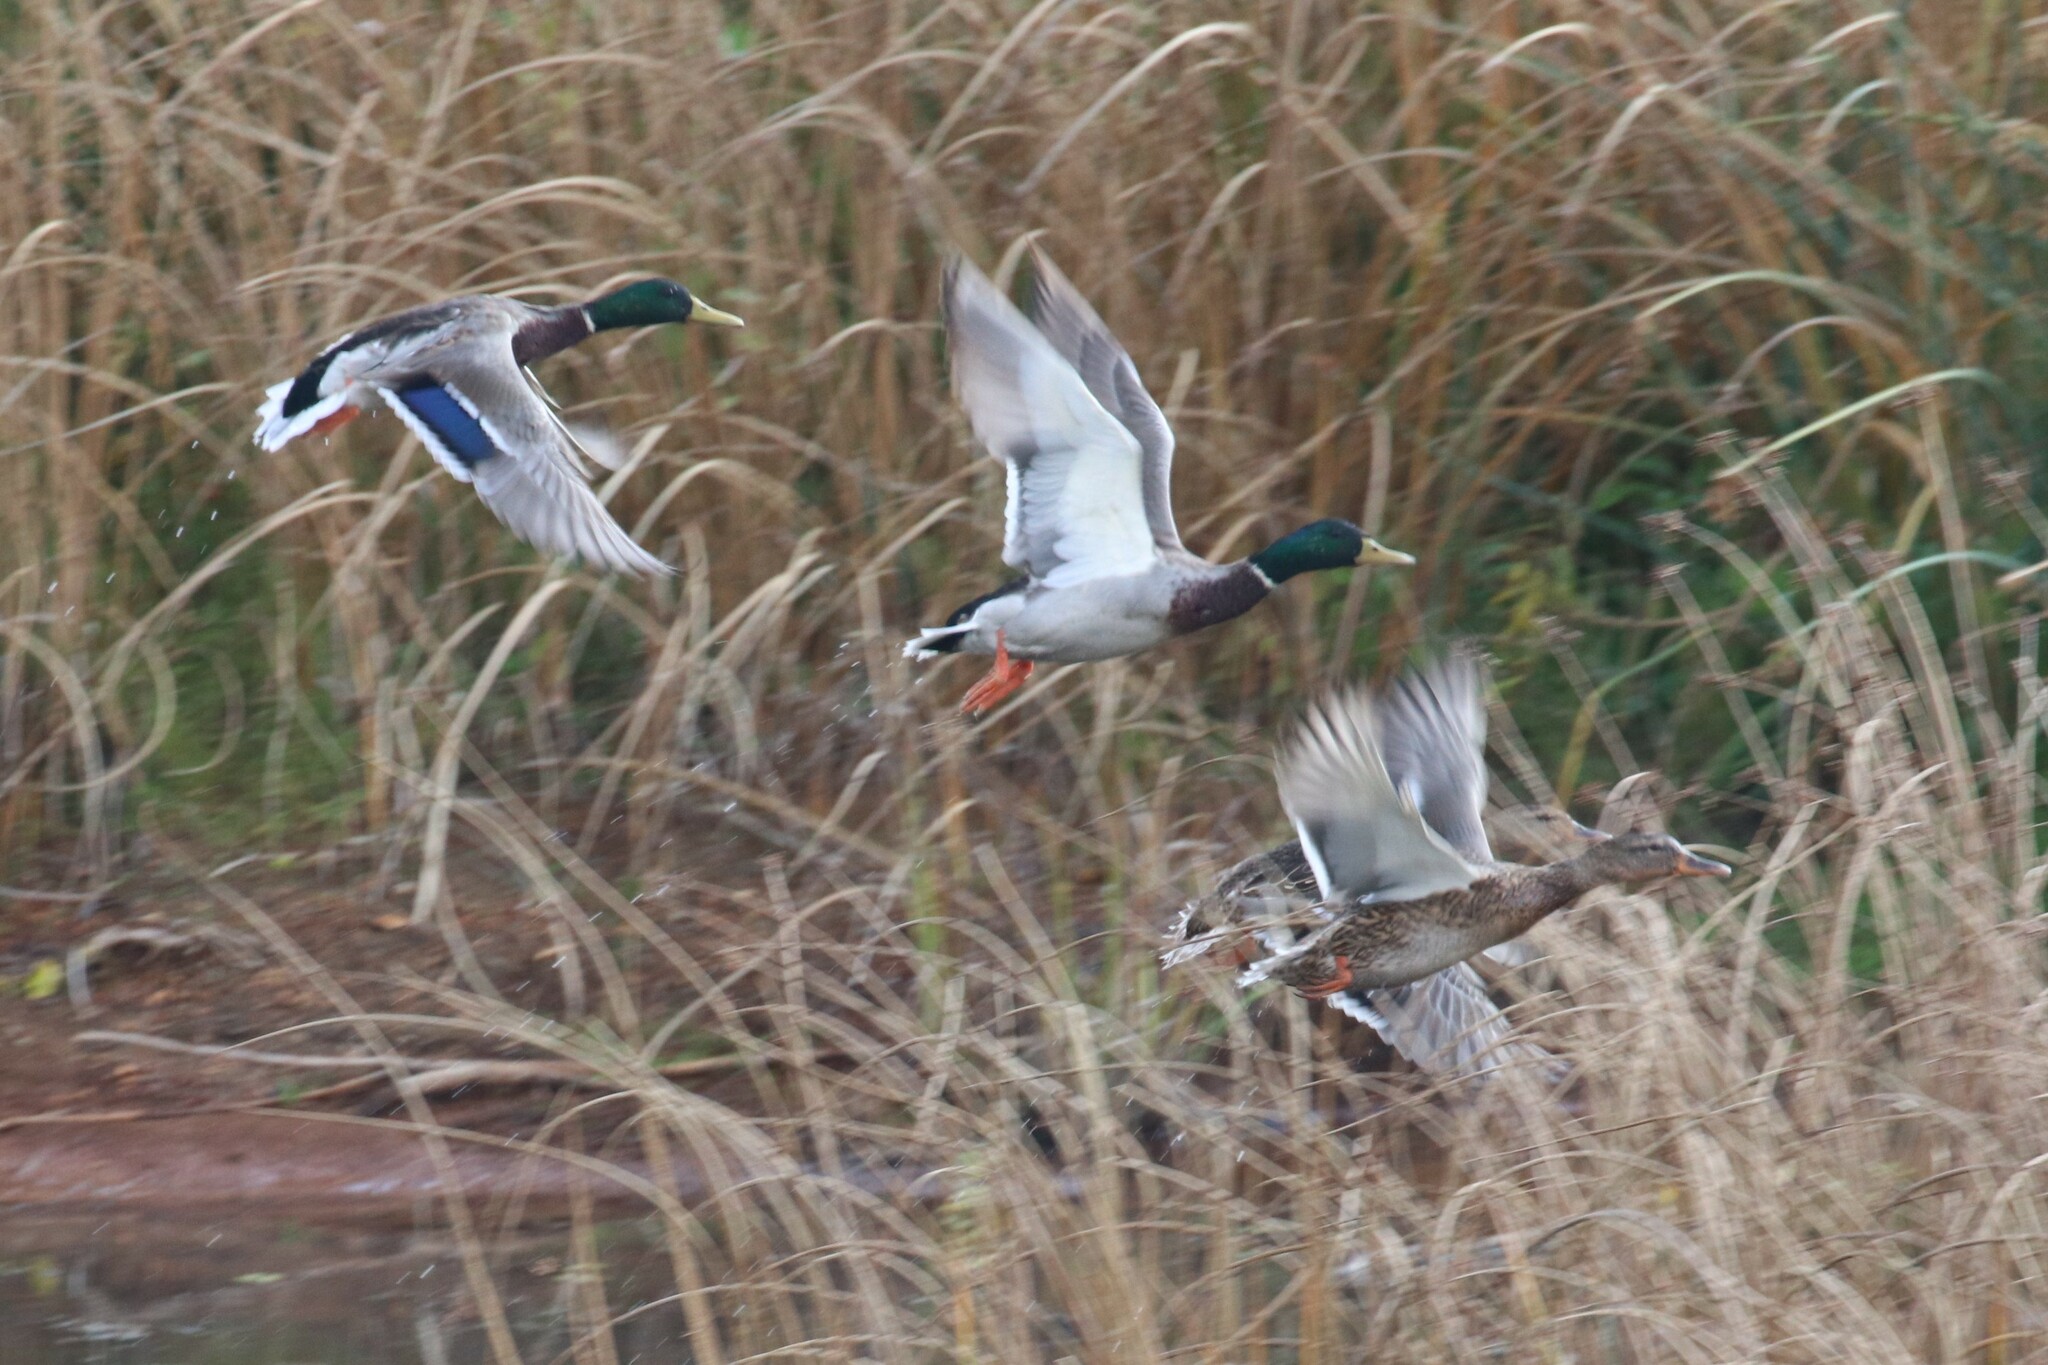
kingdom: Animalia
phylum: Chordata
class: Aves
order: Anseriformes
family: Anatidae
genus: Anas
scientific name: Anas platyrhynchos
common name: Mallard
